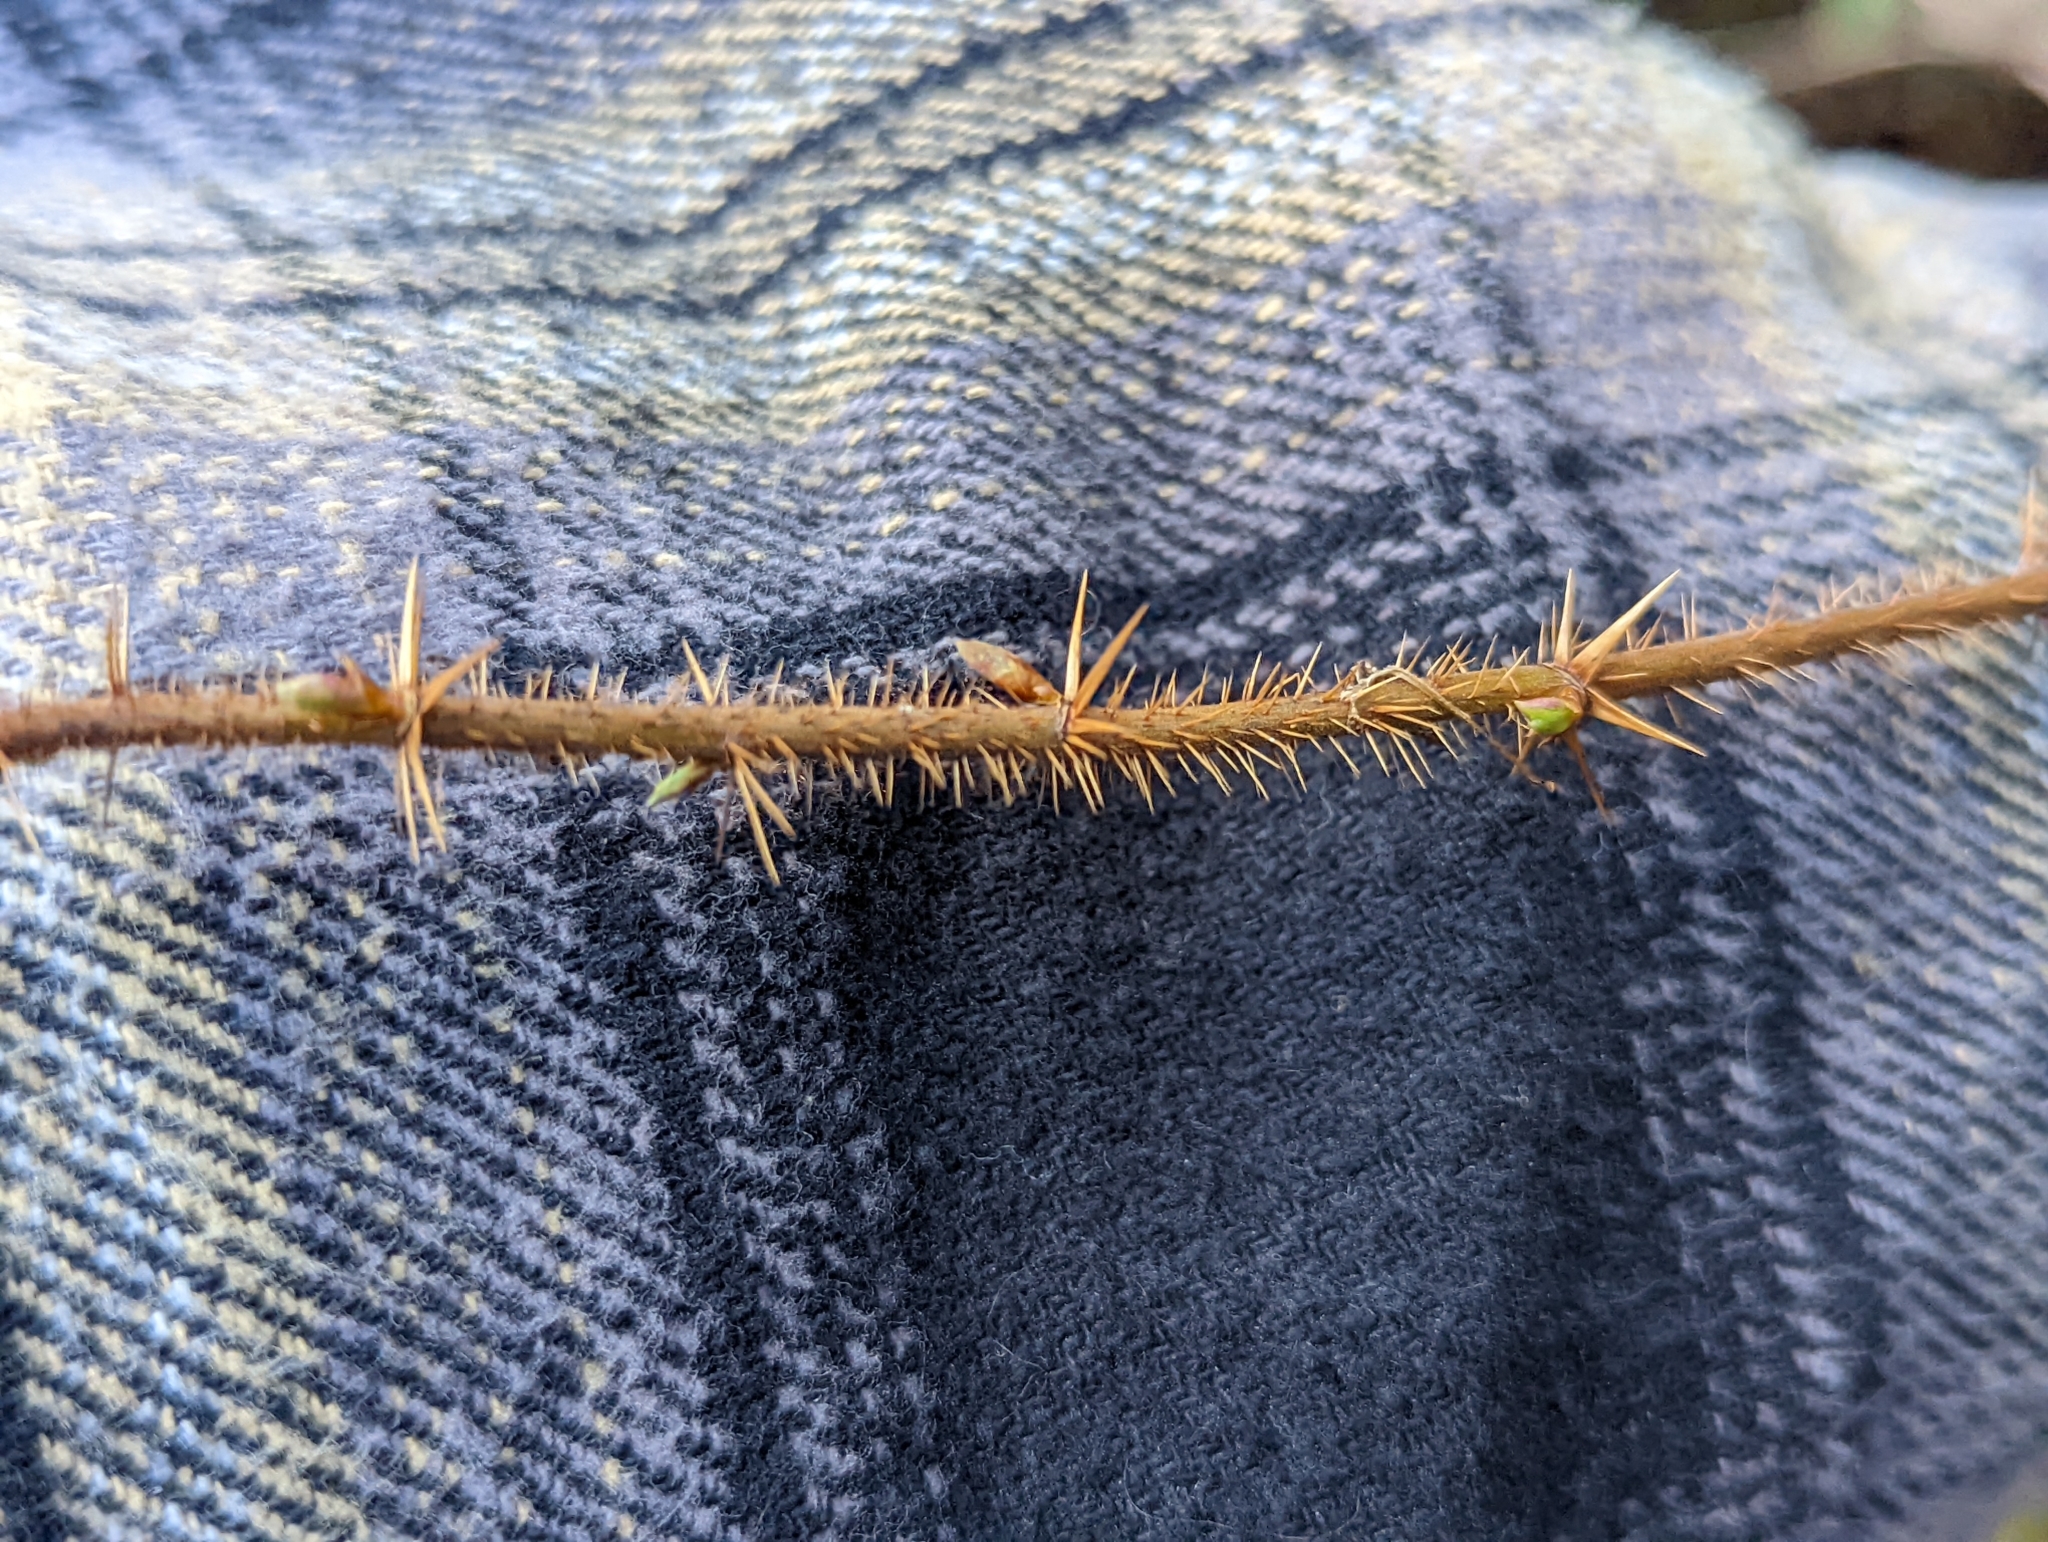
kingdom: Plantae
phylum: Tracheophyta
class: Magnoliopsida
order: Saxifragales
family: Grossulariaceae
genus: Ribes
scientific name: Ribes lacustre
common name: Black gooseberry
